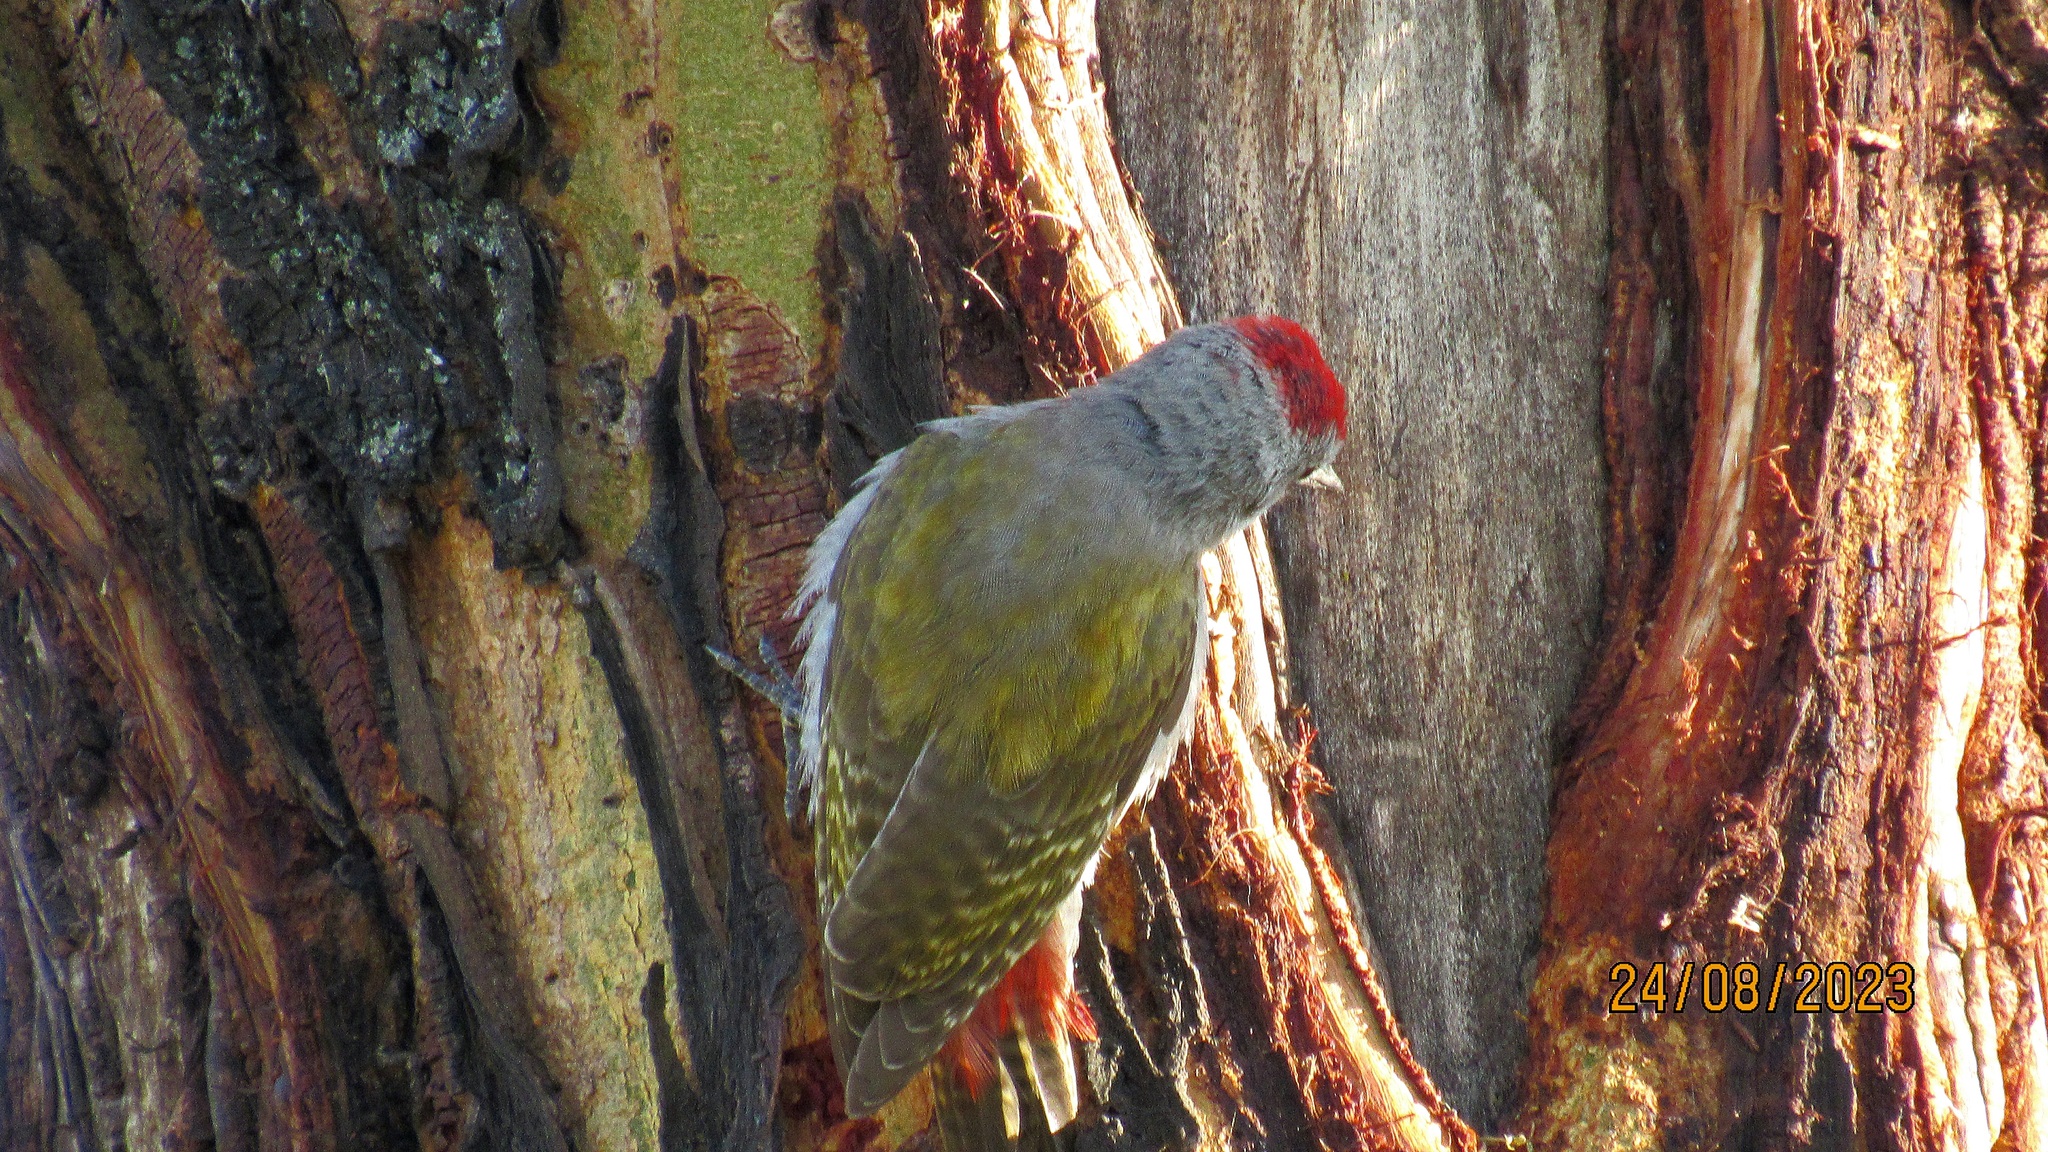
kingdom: Animalia
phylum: Chordata
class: Aves
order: Piciformes
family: Picidae
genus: Dendropicos
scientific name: Dendropicos goertae
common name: African grey woodpecker
